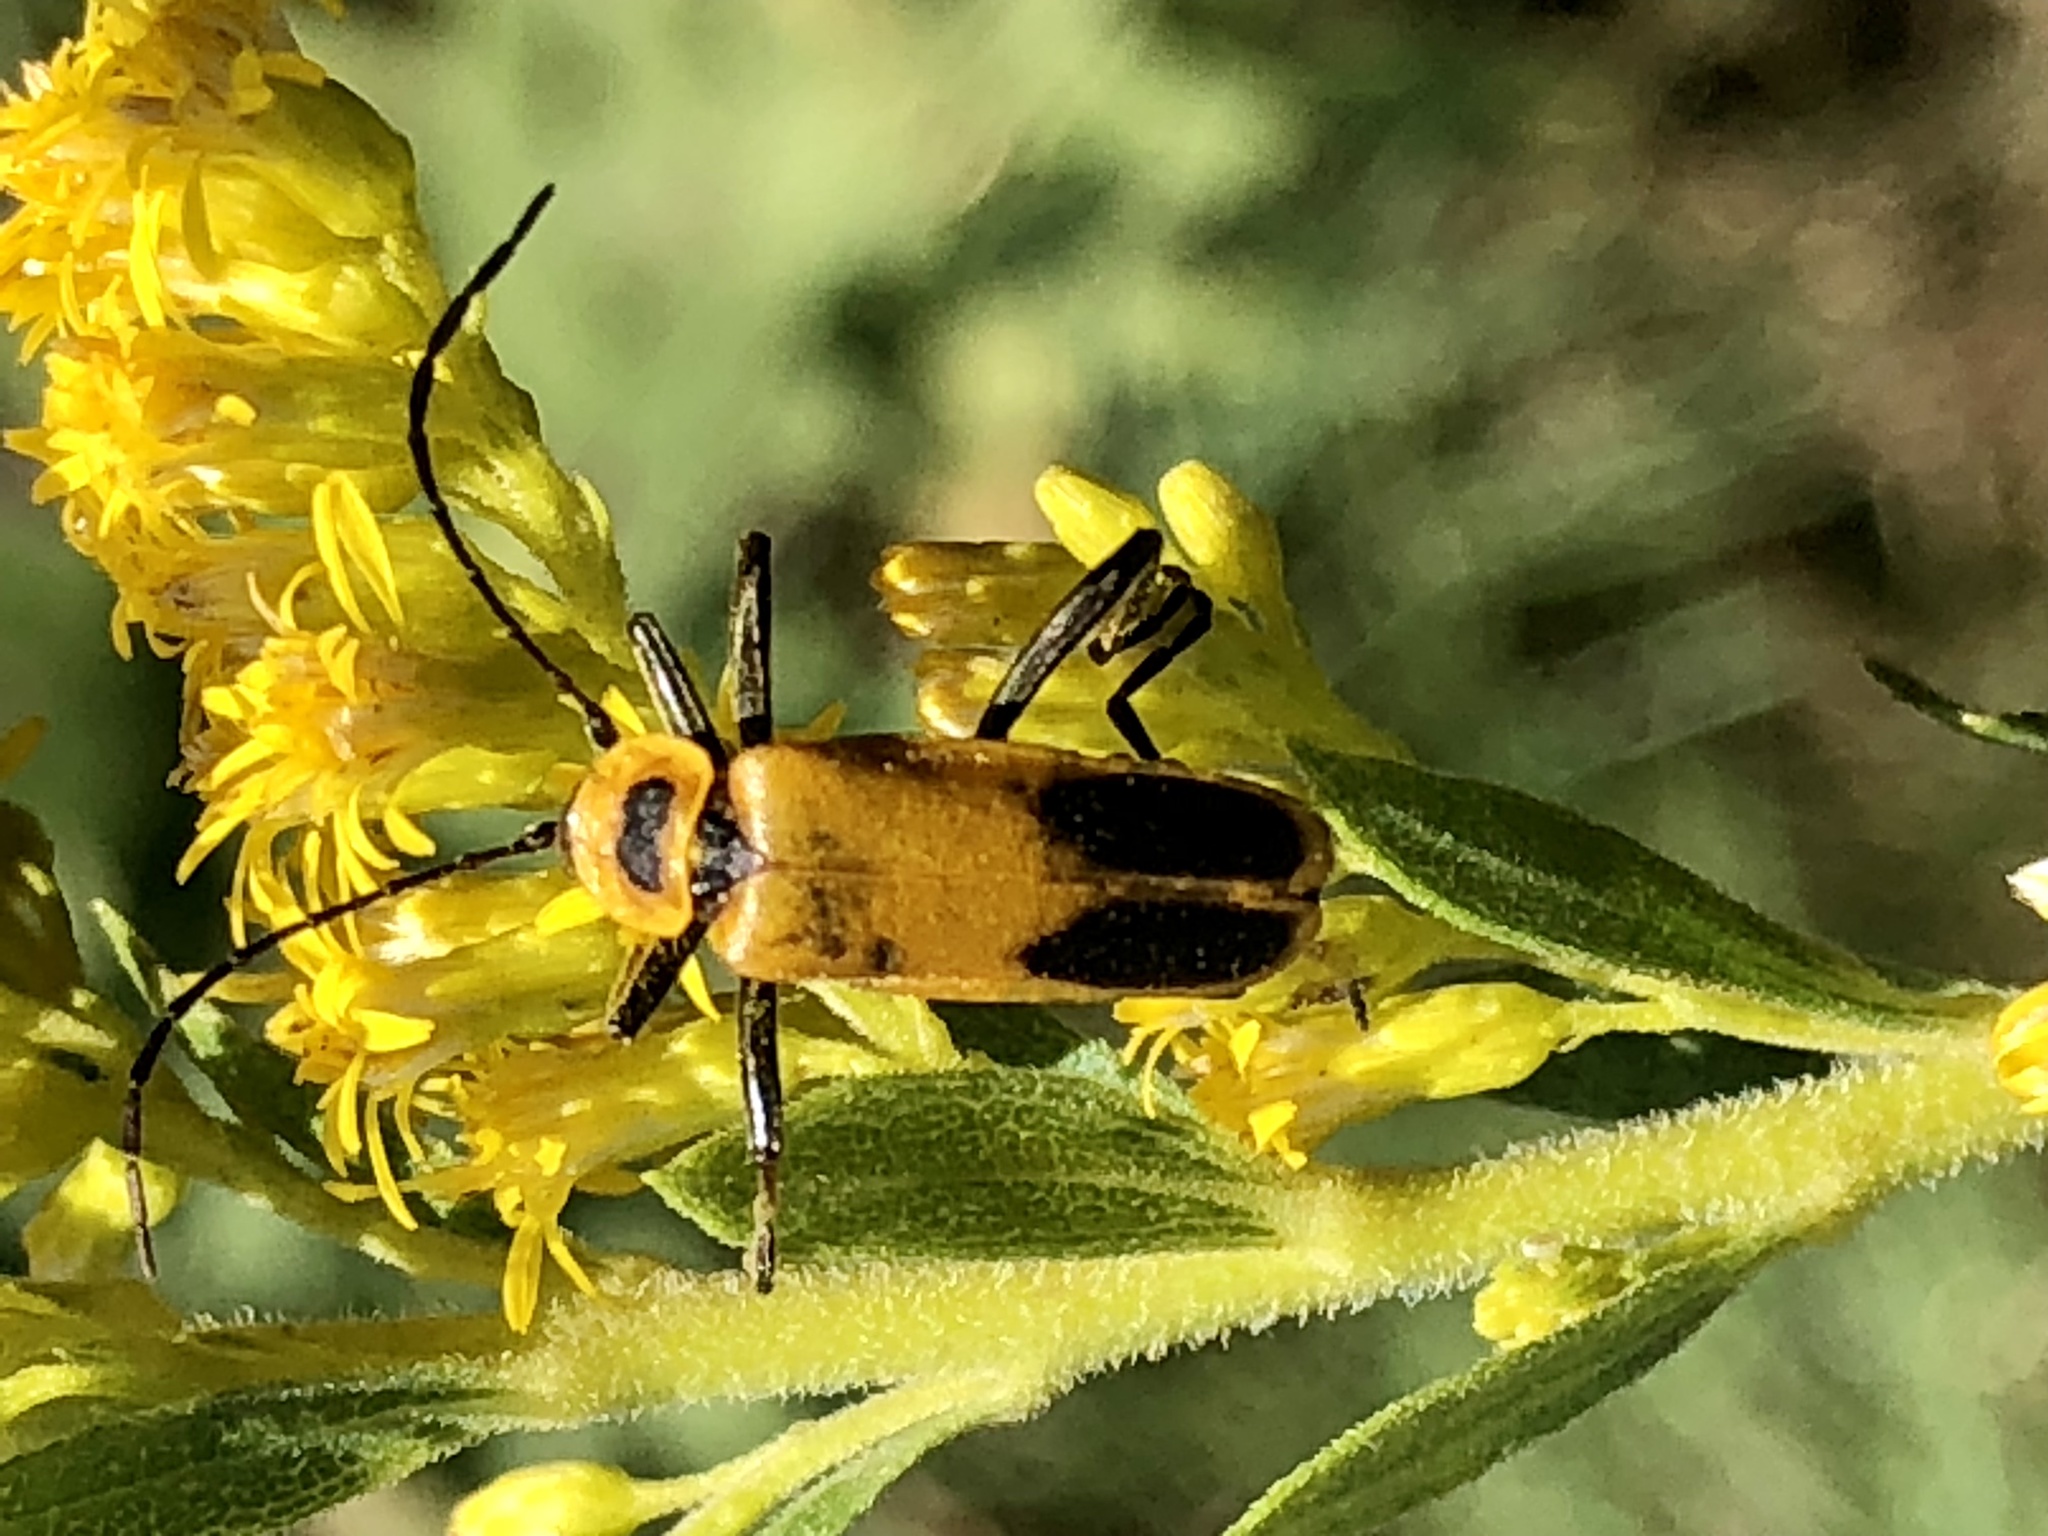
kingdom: Animalia
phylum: Arthropoda
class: Insecta
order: Coleoptera
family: Cantharidae
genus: Chauliognathus
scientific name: Chauliognathus pensylvanicus
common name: Goldenrod soldier beetle
